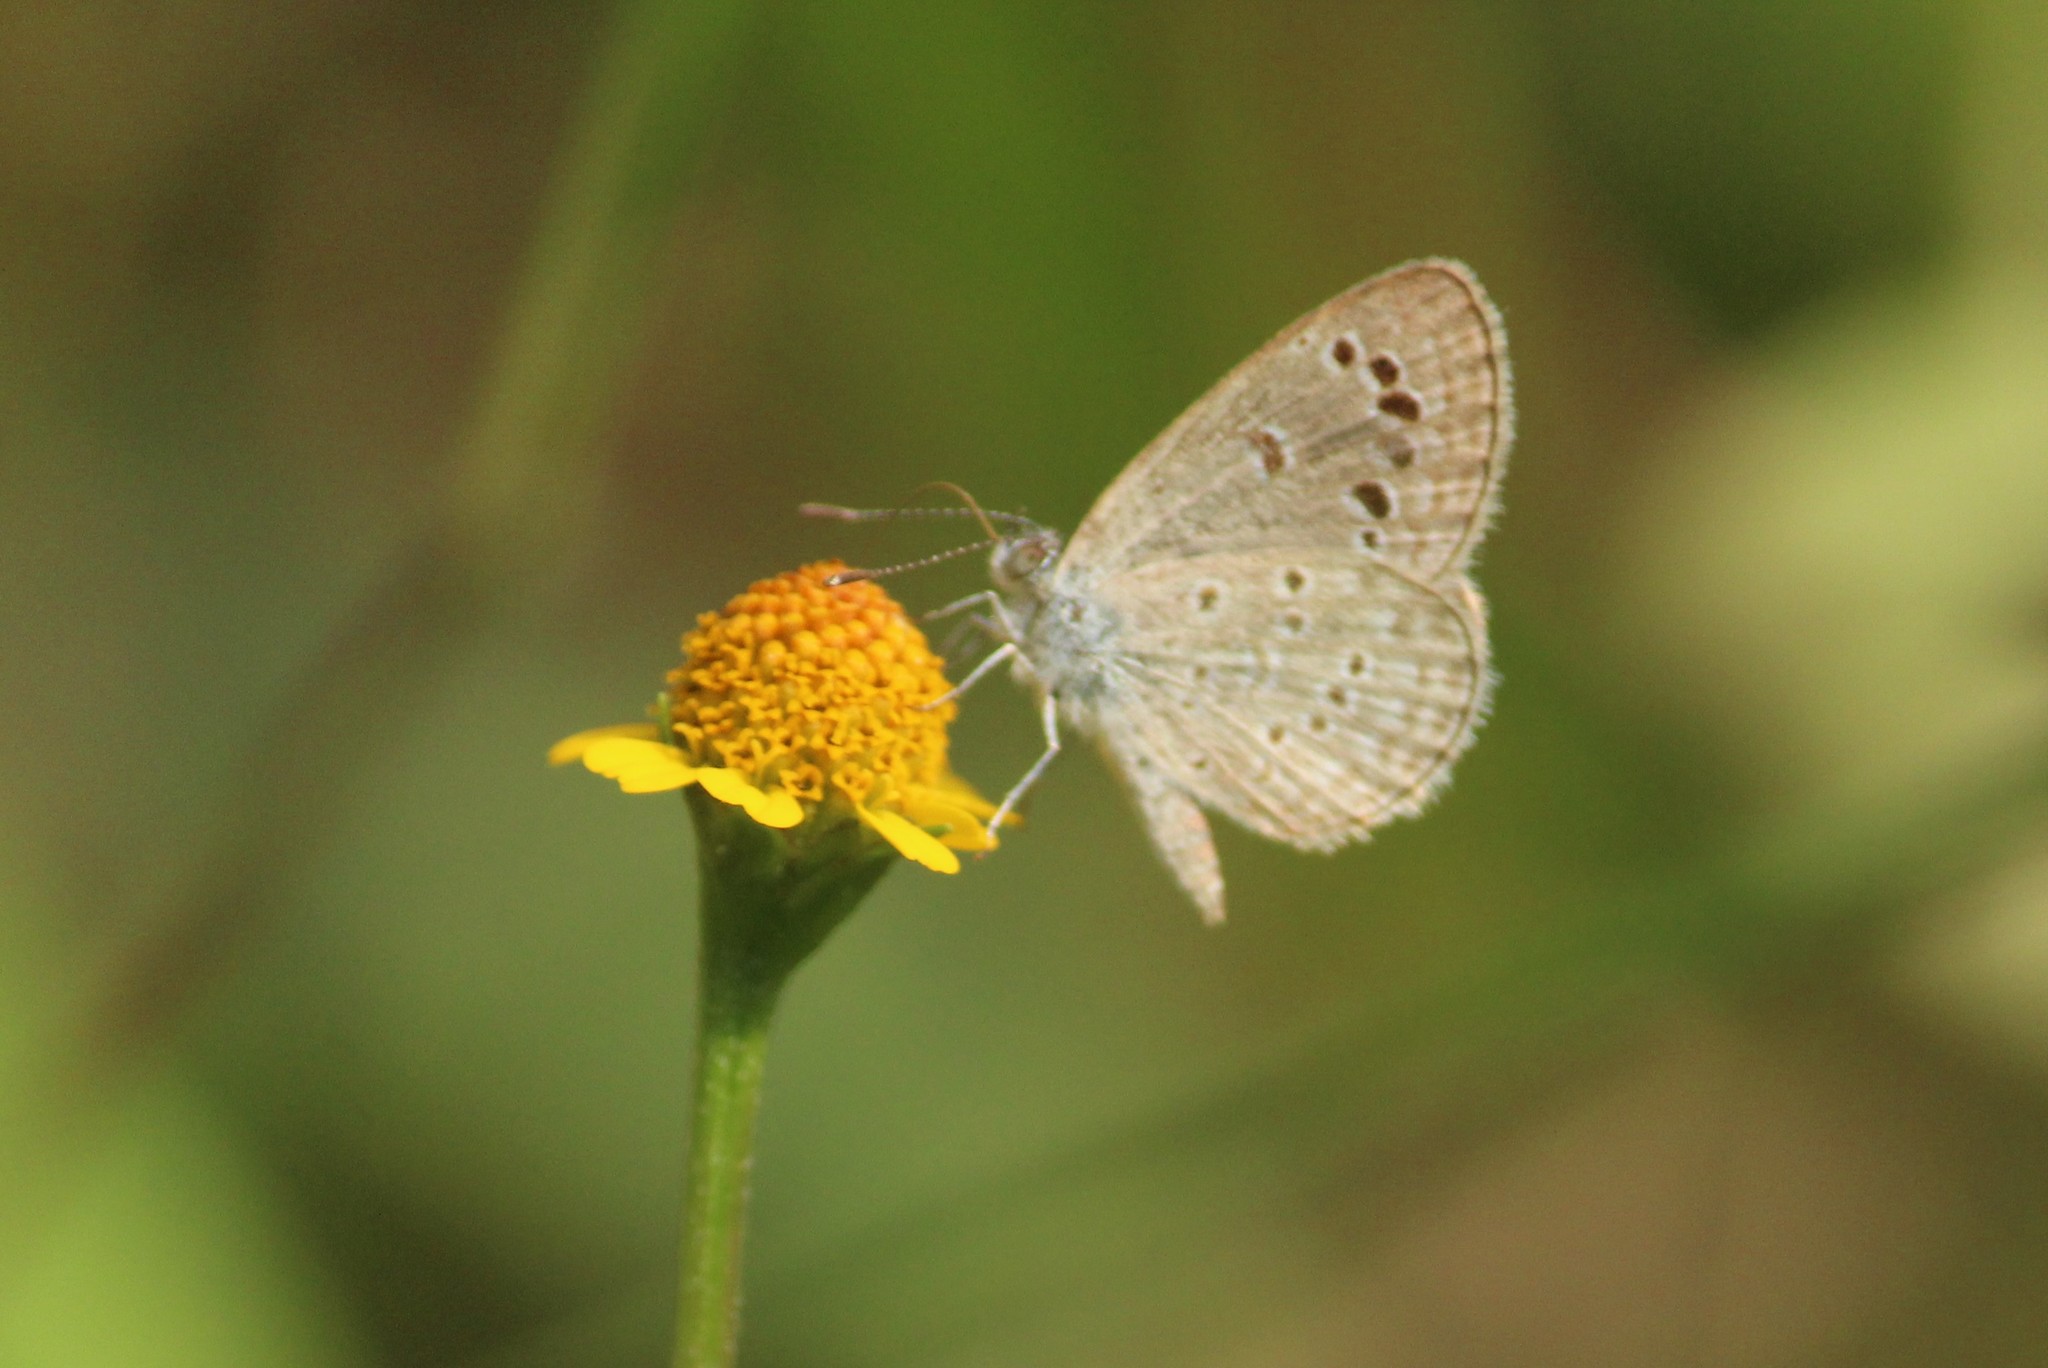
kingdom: Animalia
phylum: Arthropoda
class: Insecta
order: Lepidoptera
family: Lycaenidae
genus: Zizina
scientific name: Zizina otis
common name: Lesser grass blue
